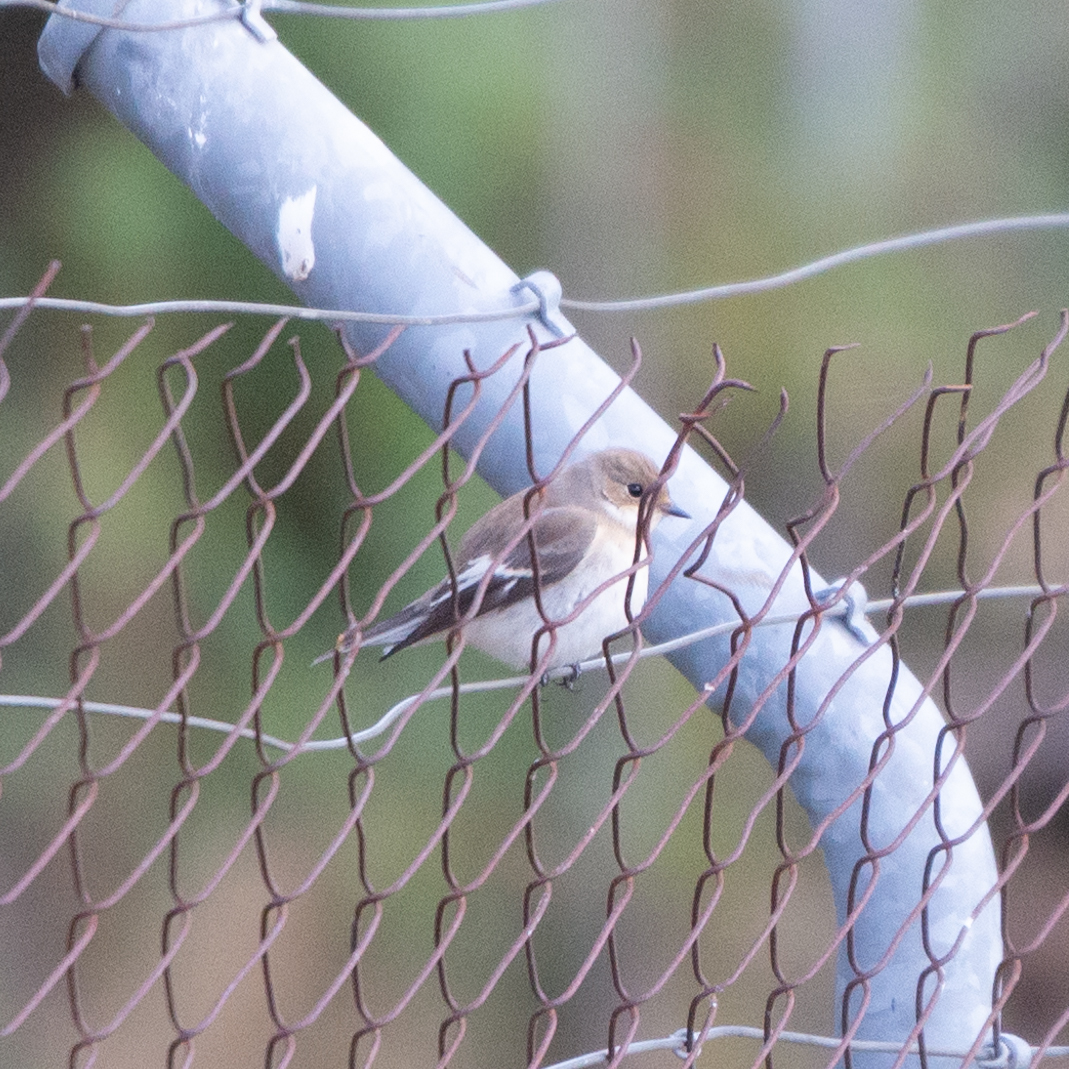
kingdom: Animalia
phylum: Chordata
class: Aves
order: Passeriformes
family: Muscicapidae
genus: Ficedula
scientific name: Ficedula hypoleuca
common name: European pied flycatcher
